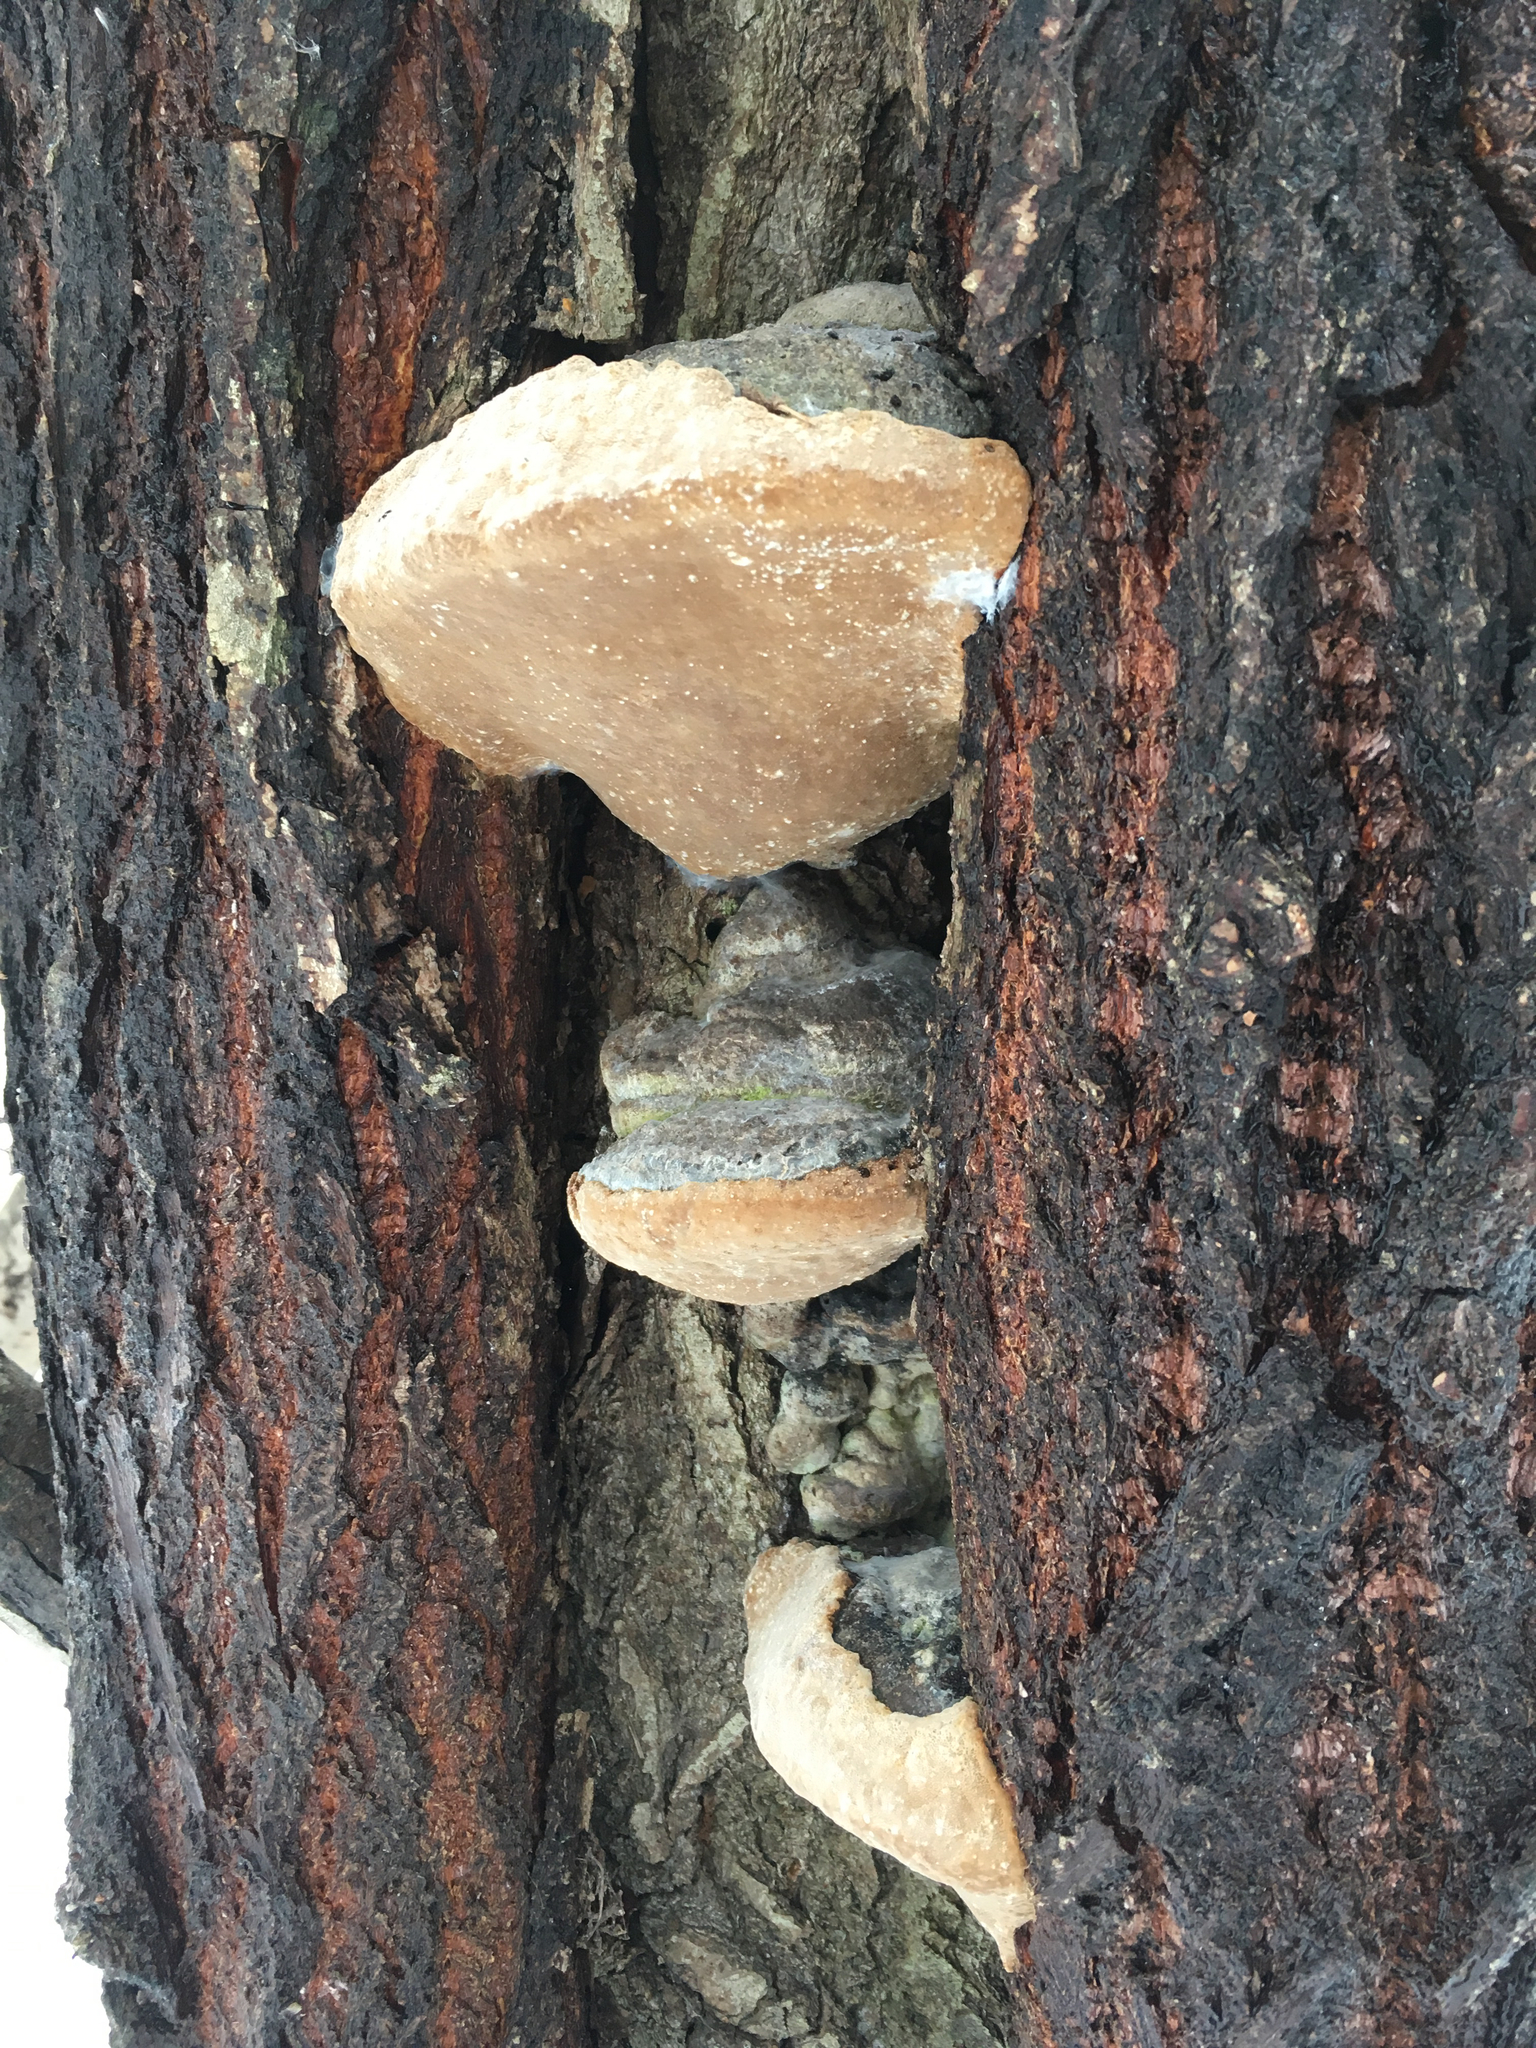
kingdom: Fungi
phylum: Basidiomycota
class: Agaricomycetes
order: Hymenochaetales
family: Hymenochaetaceae
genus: Phellinus
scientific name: Phellinus populicola
